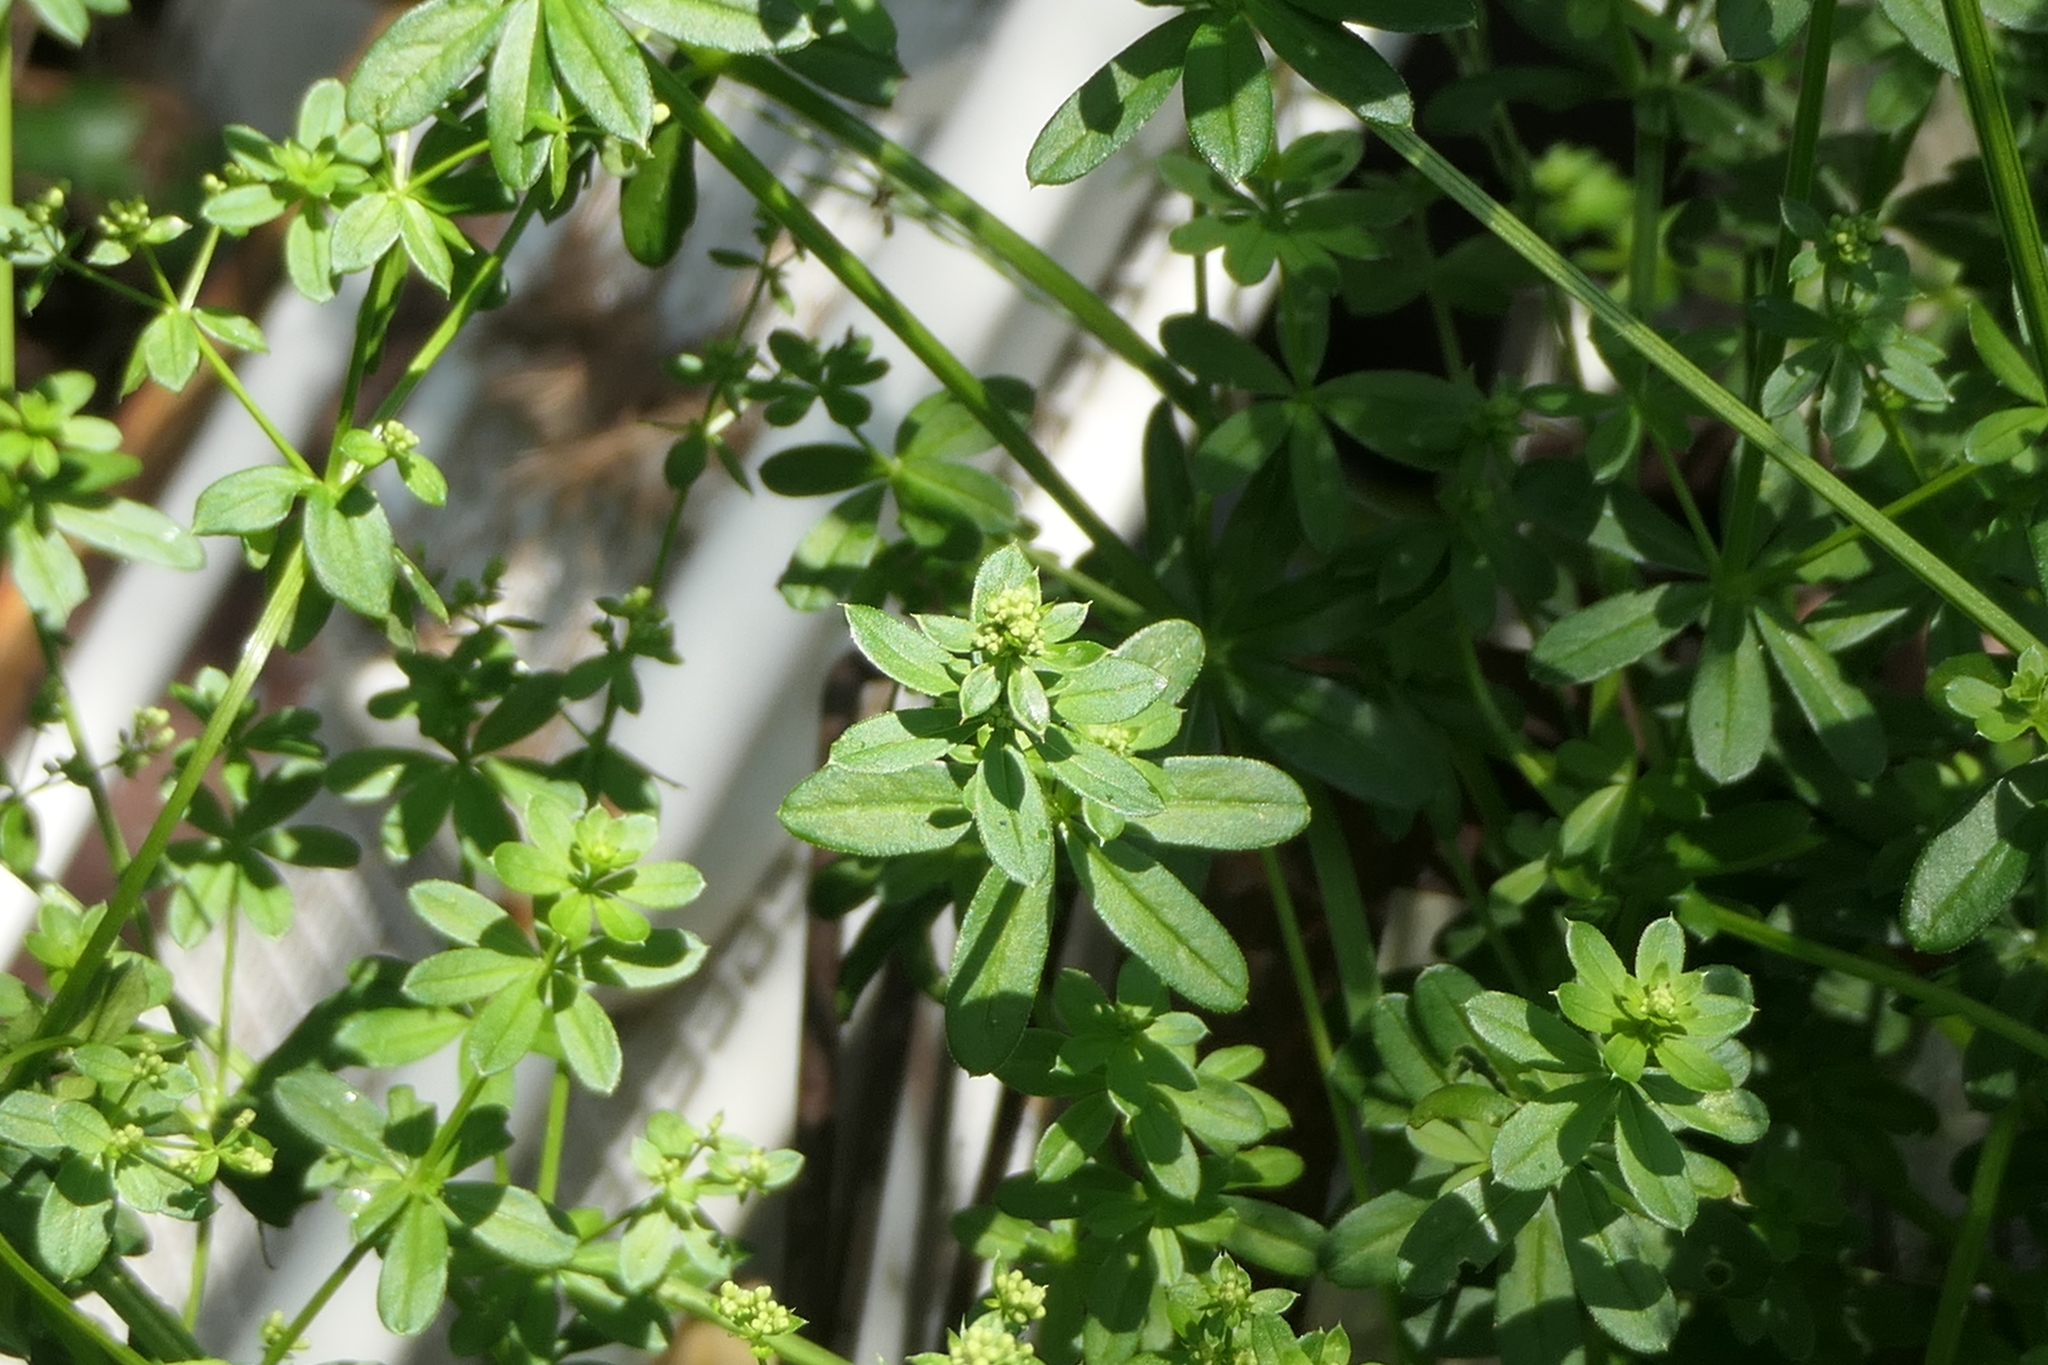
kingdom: Plantae
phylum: Tracheophyta
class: Magnoliopsida
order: Gentianales
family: Rubiaceae
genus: Galium
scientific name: Galium mollugo
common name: Hedge bedstraw
